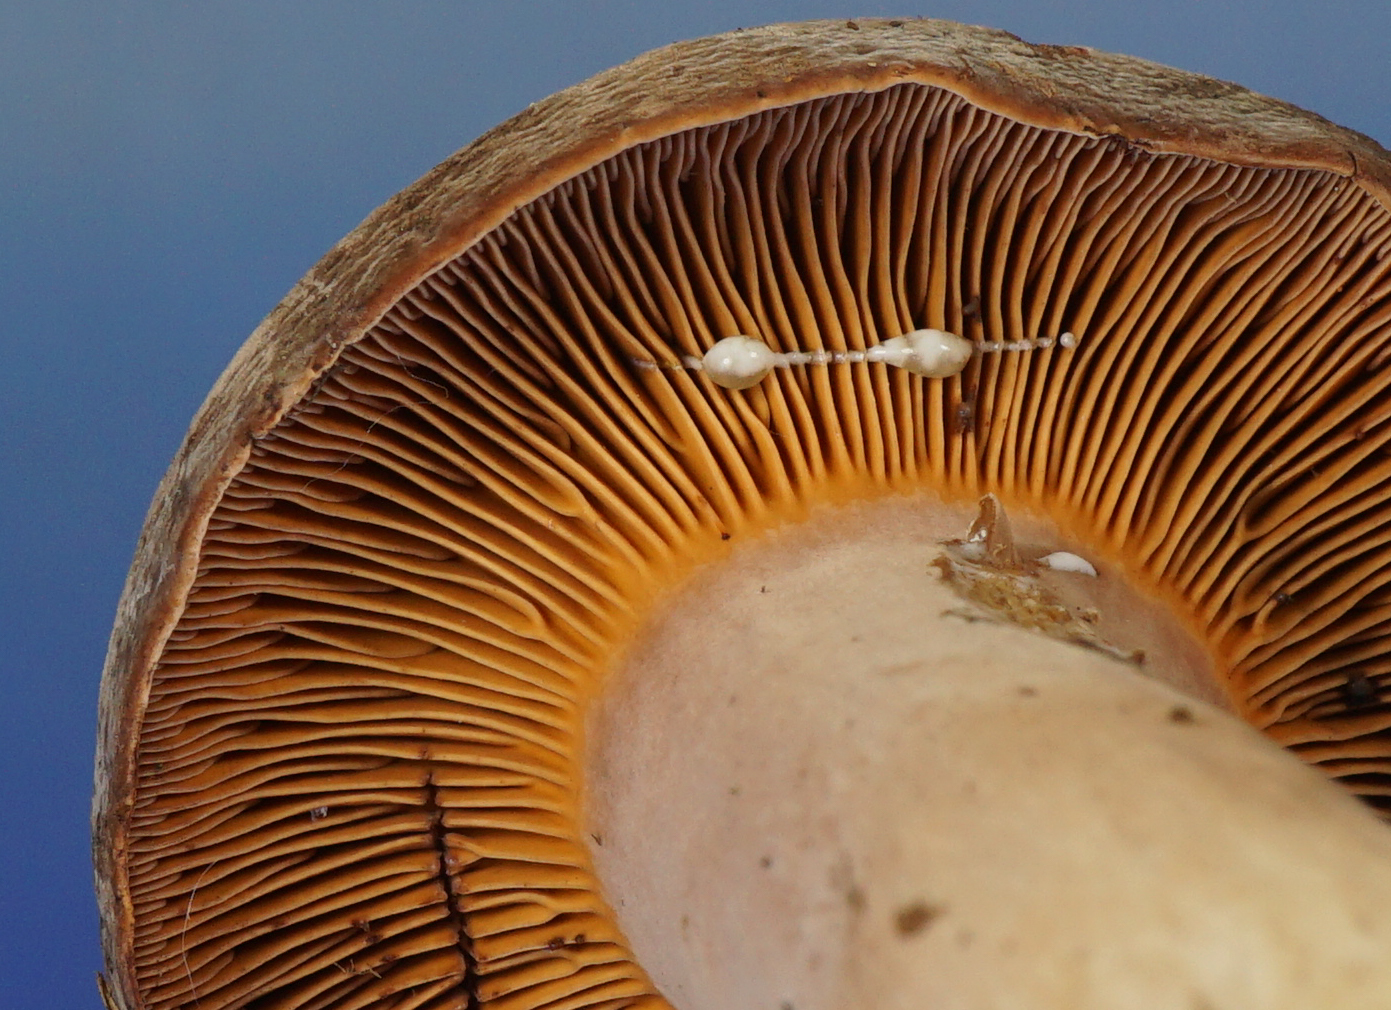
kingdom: Fungi
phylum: Basidiomycota
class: Agaricomycetes
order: Russulales
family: Russulaceae
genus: Lactarius
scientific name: Lactarius corrugis
